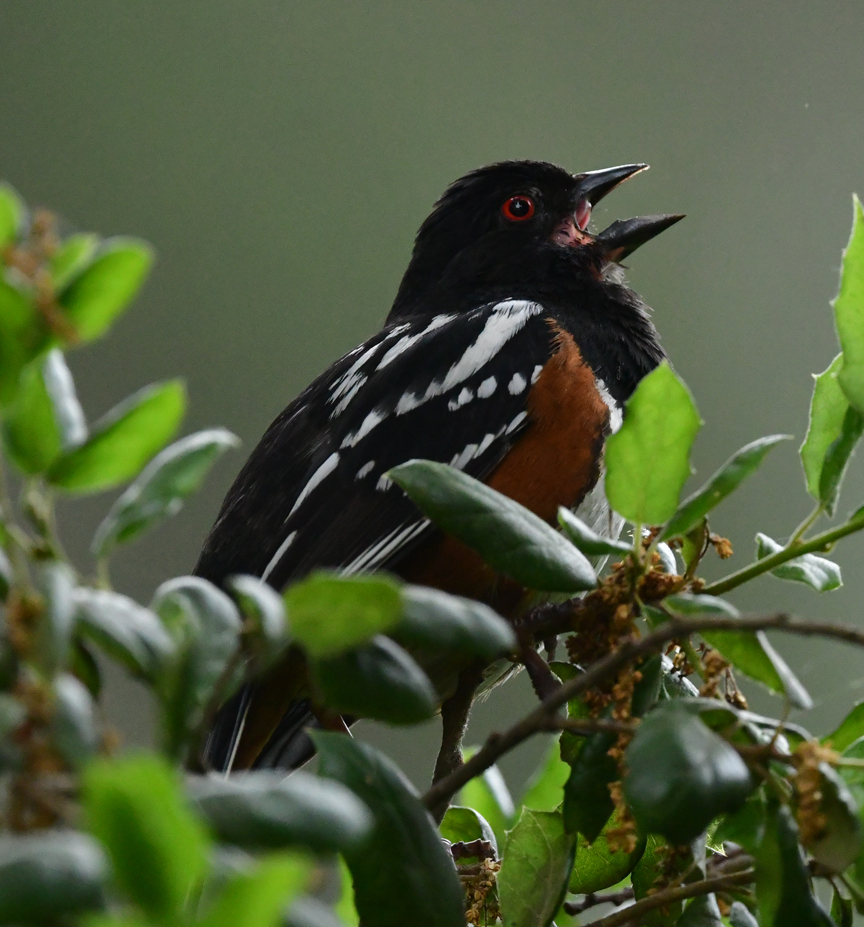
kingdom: Animalia
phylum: Chordata
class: Aves
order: Passeriformes
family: Passerellidae
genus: Pipilo
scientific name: Pipilo maculatus
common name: Spotted towhee
